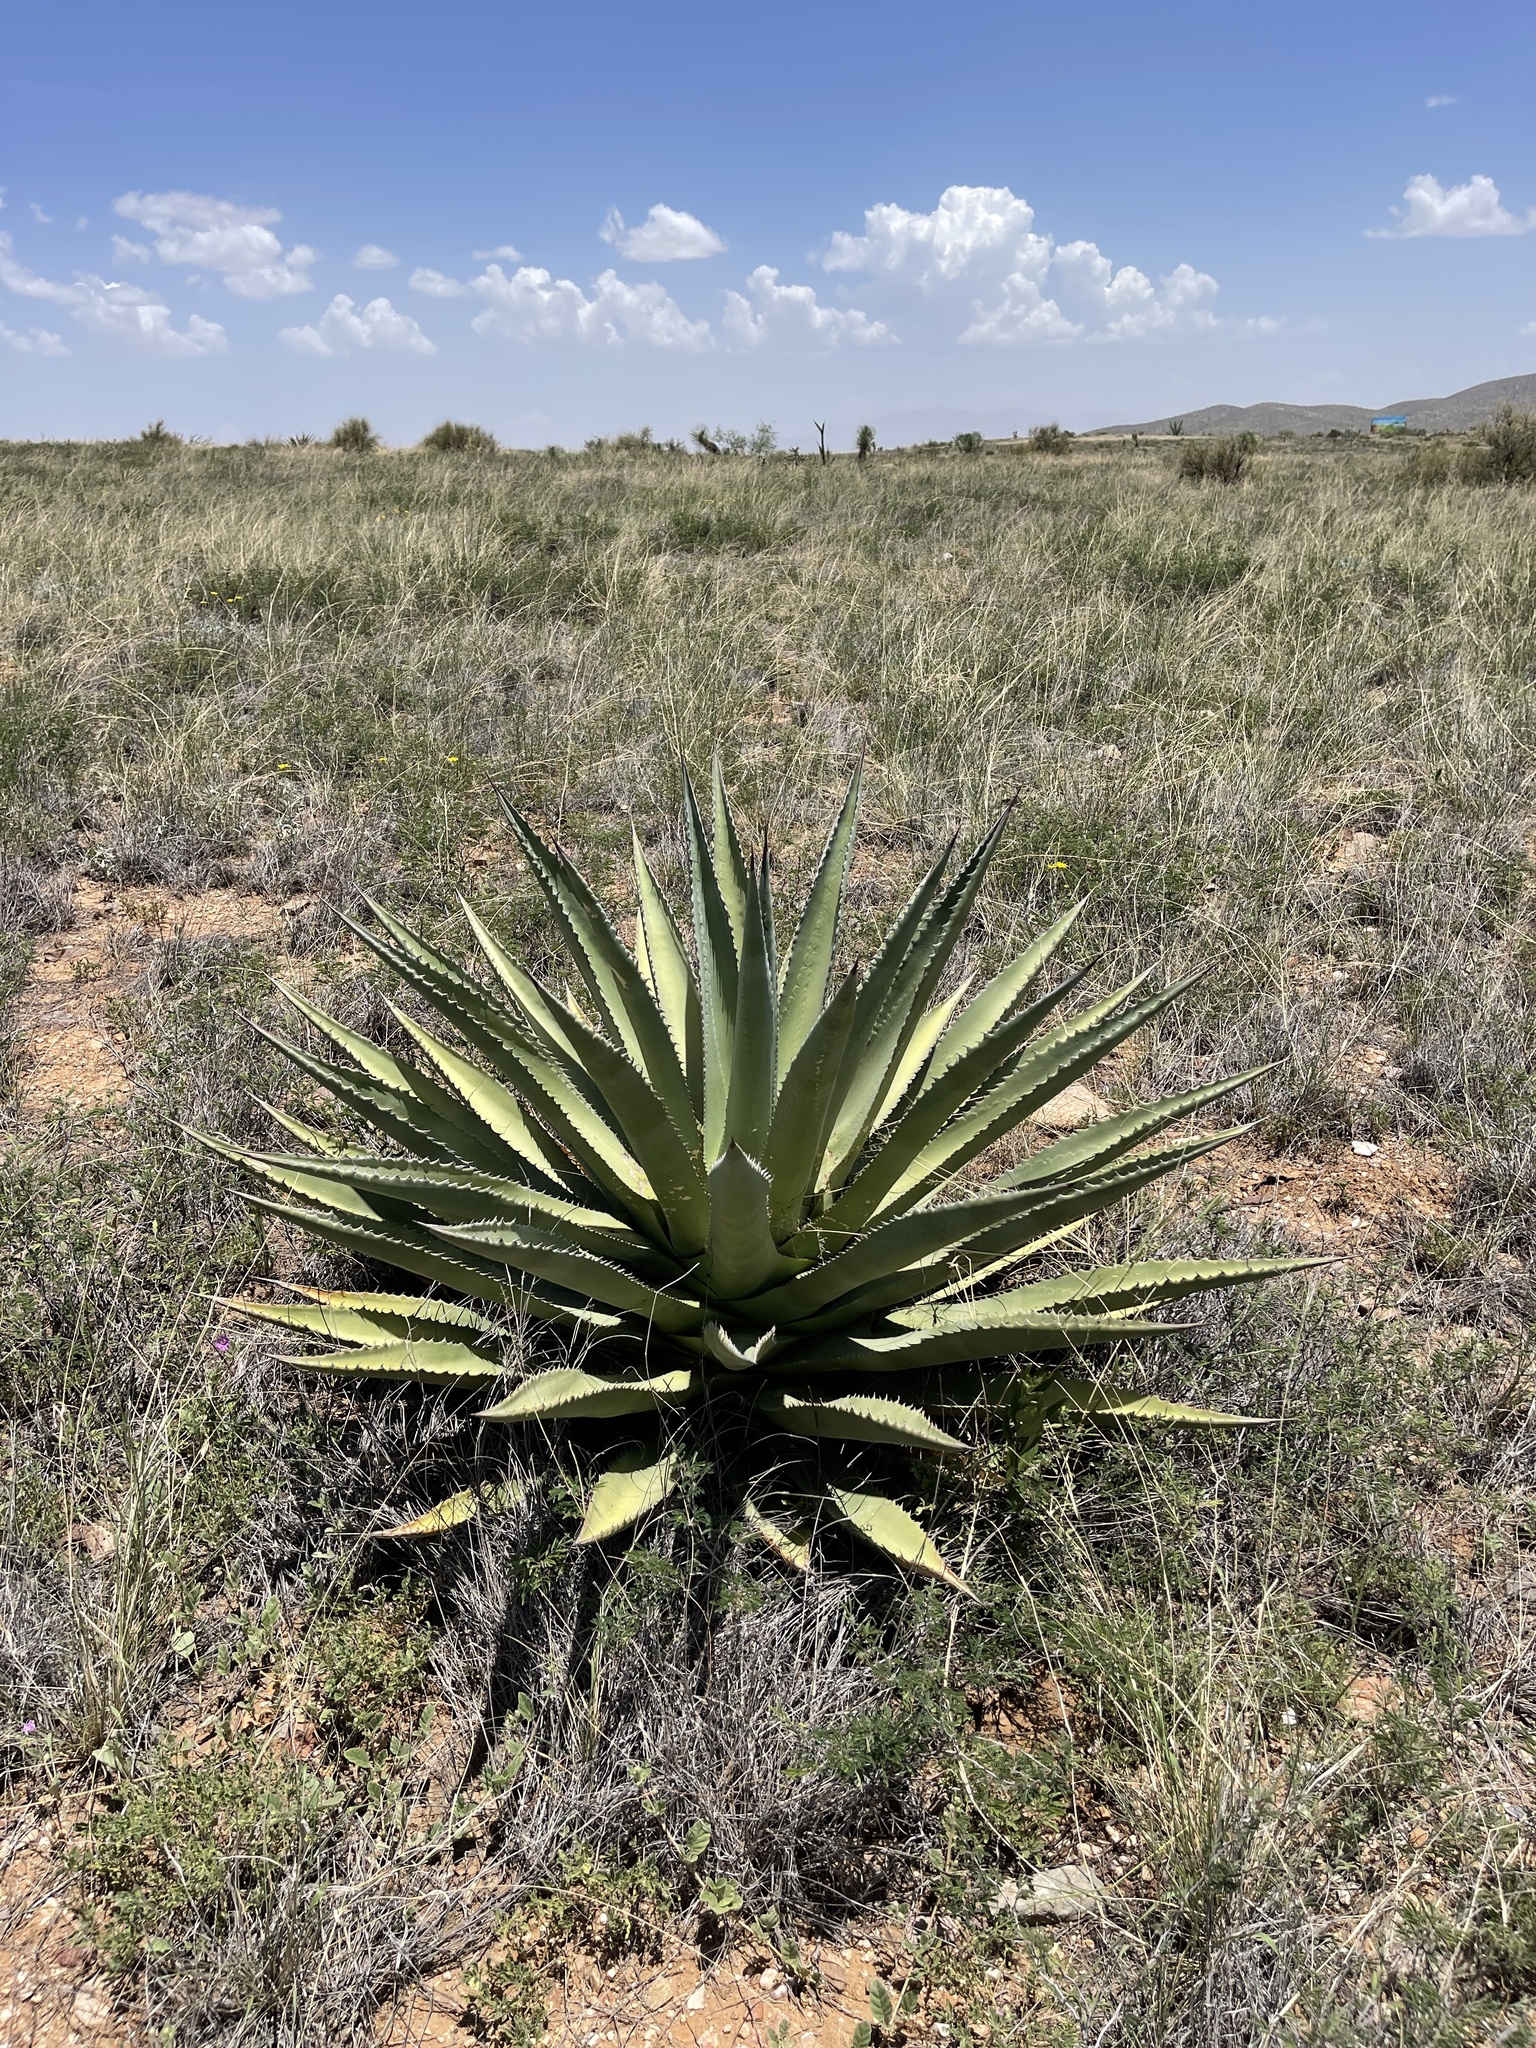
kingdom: Plantae
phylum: Tracheophyta
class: Liliopsida
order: Asparagales
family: Asparagaceae
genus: Agave
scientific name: Agave palmeri
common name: Palmer agave
